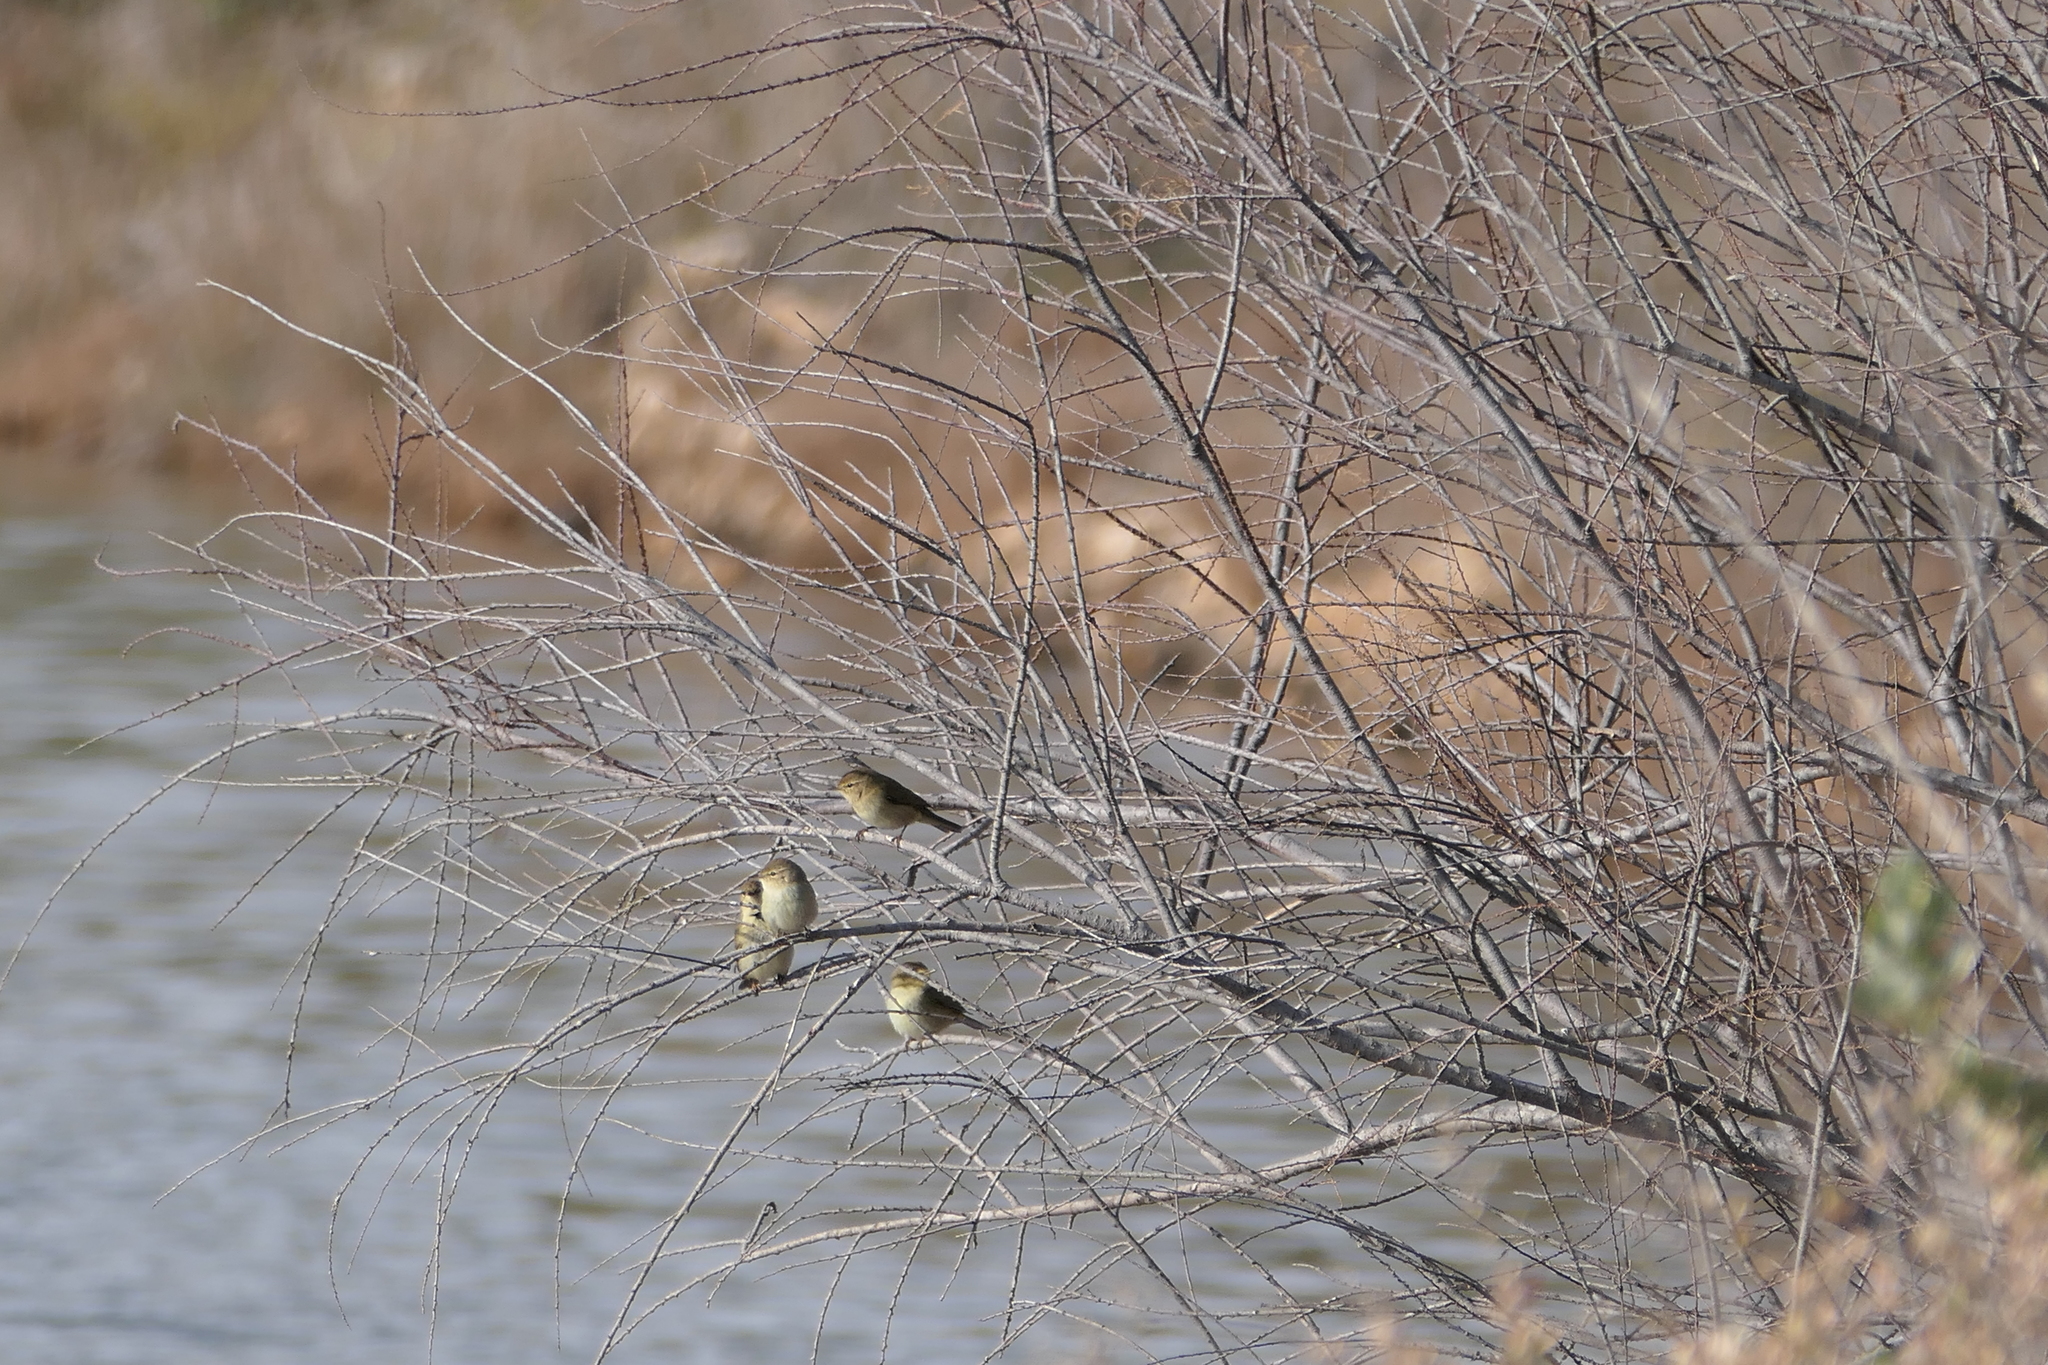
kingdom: Animalia
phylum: Chordata
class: Aves
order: Passeriformes
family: Phylloscopidae
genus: Phylloscopus
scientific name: Phylloscopus collybita
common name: Common chiffchaff
